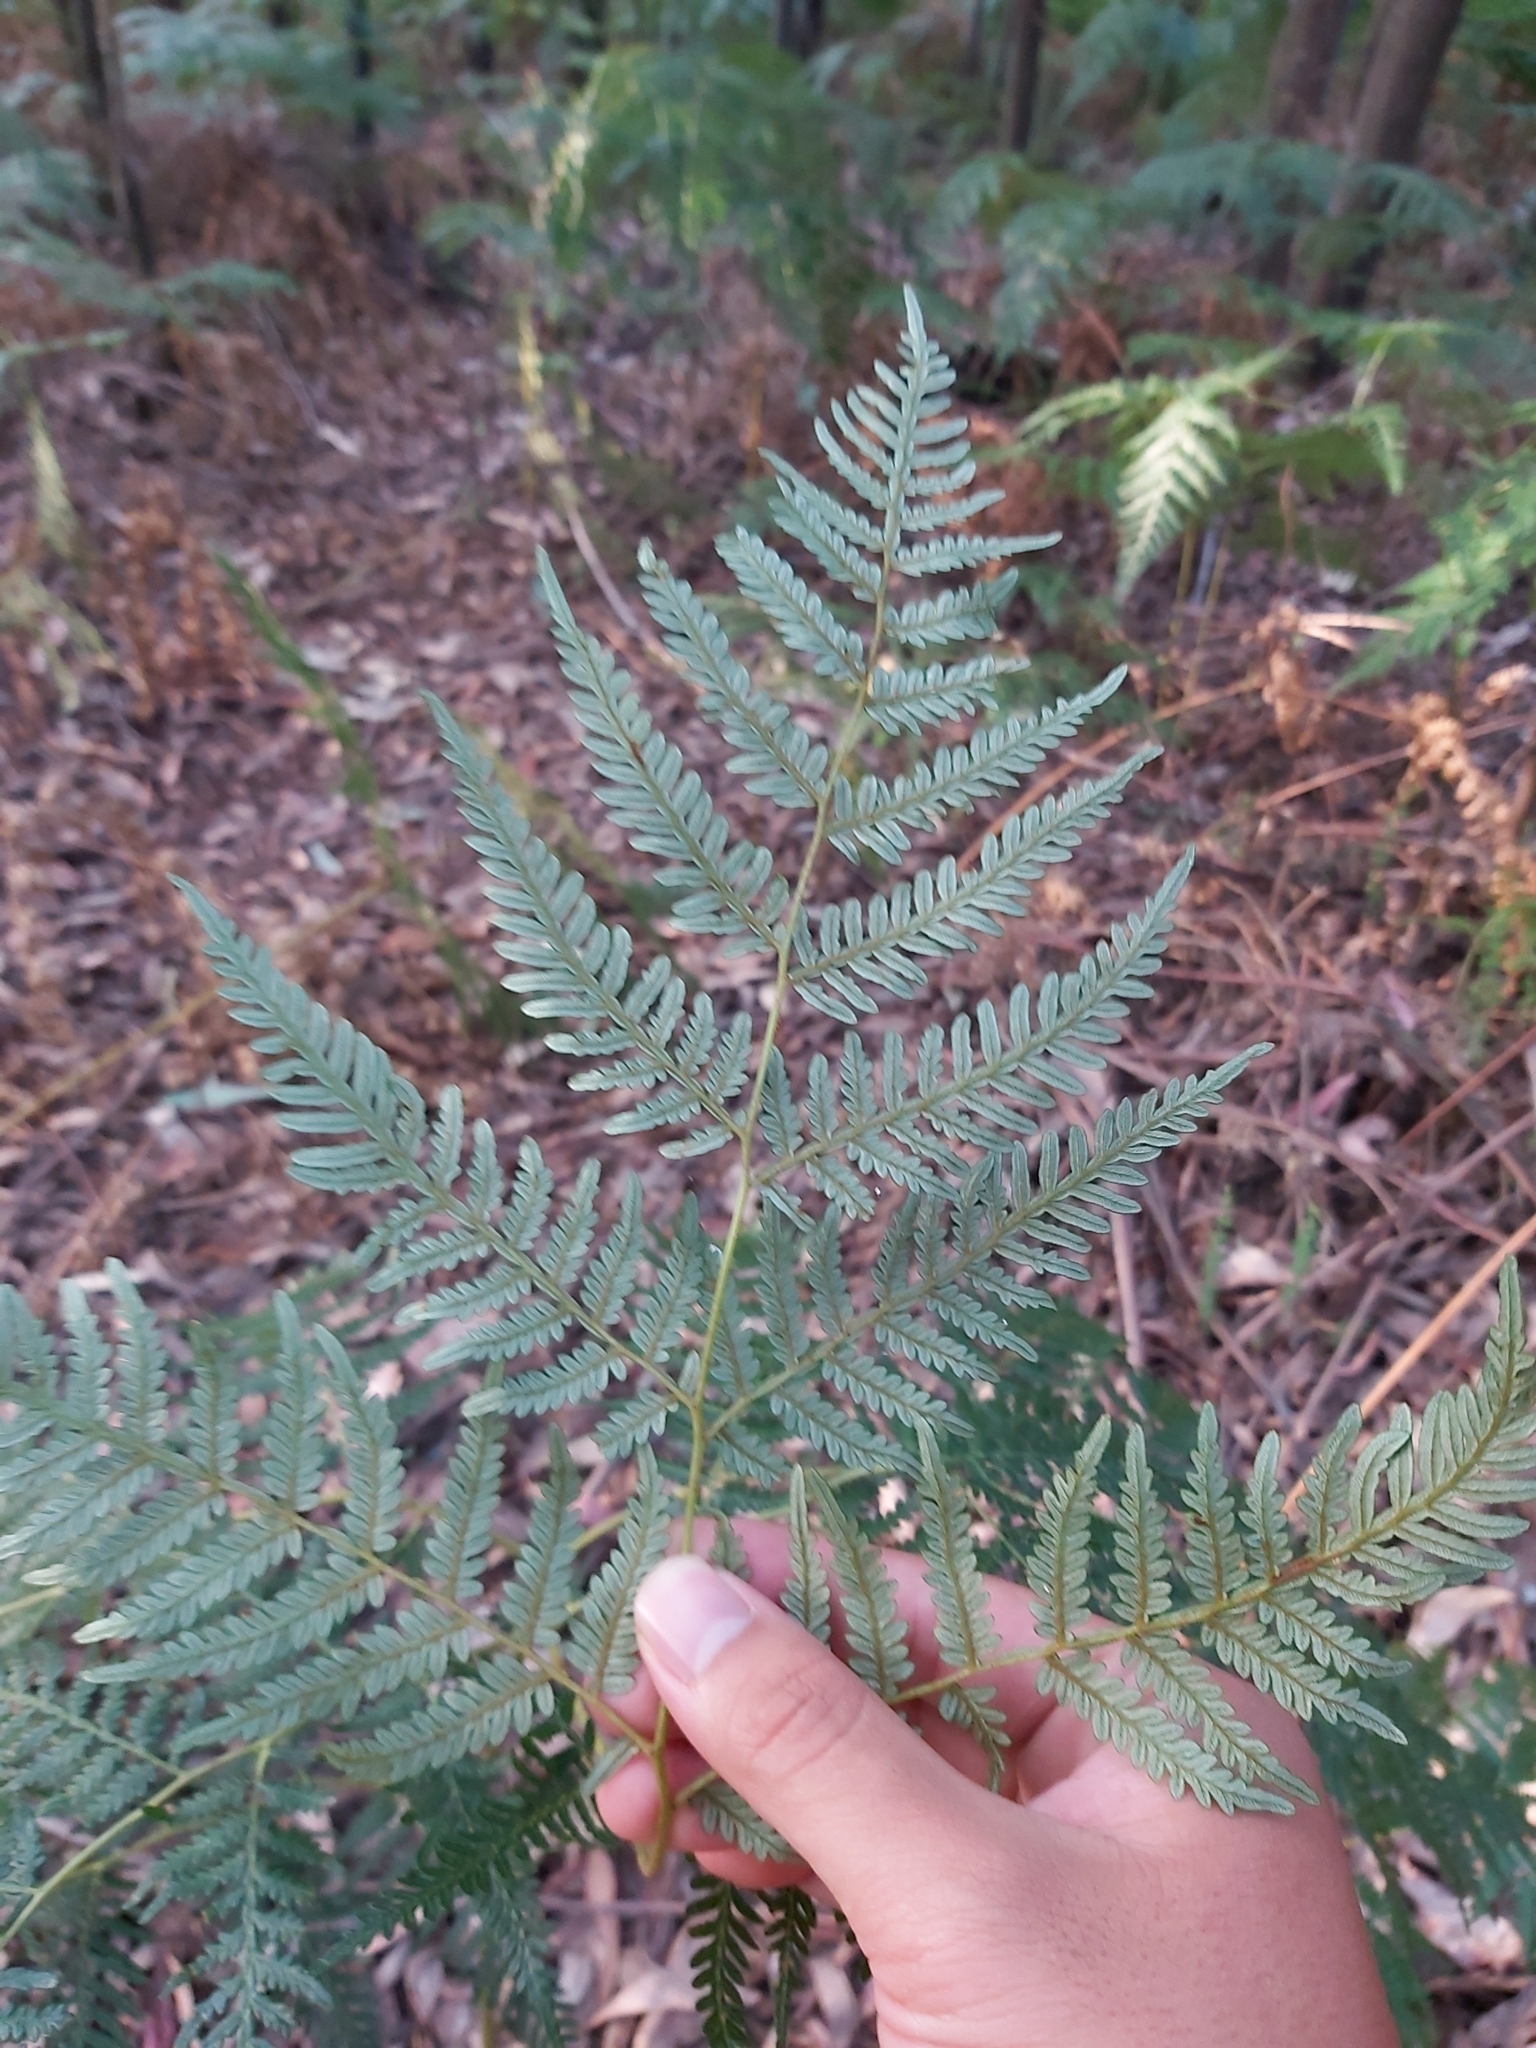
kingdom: Plantae
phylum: Tracheophyta
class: Polypodiopsida
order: Polypodiales
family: Dennstaedtiaceae
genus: Pteridium
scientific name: Pteridium esculentum
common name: Bracken fern
